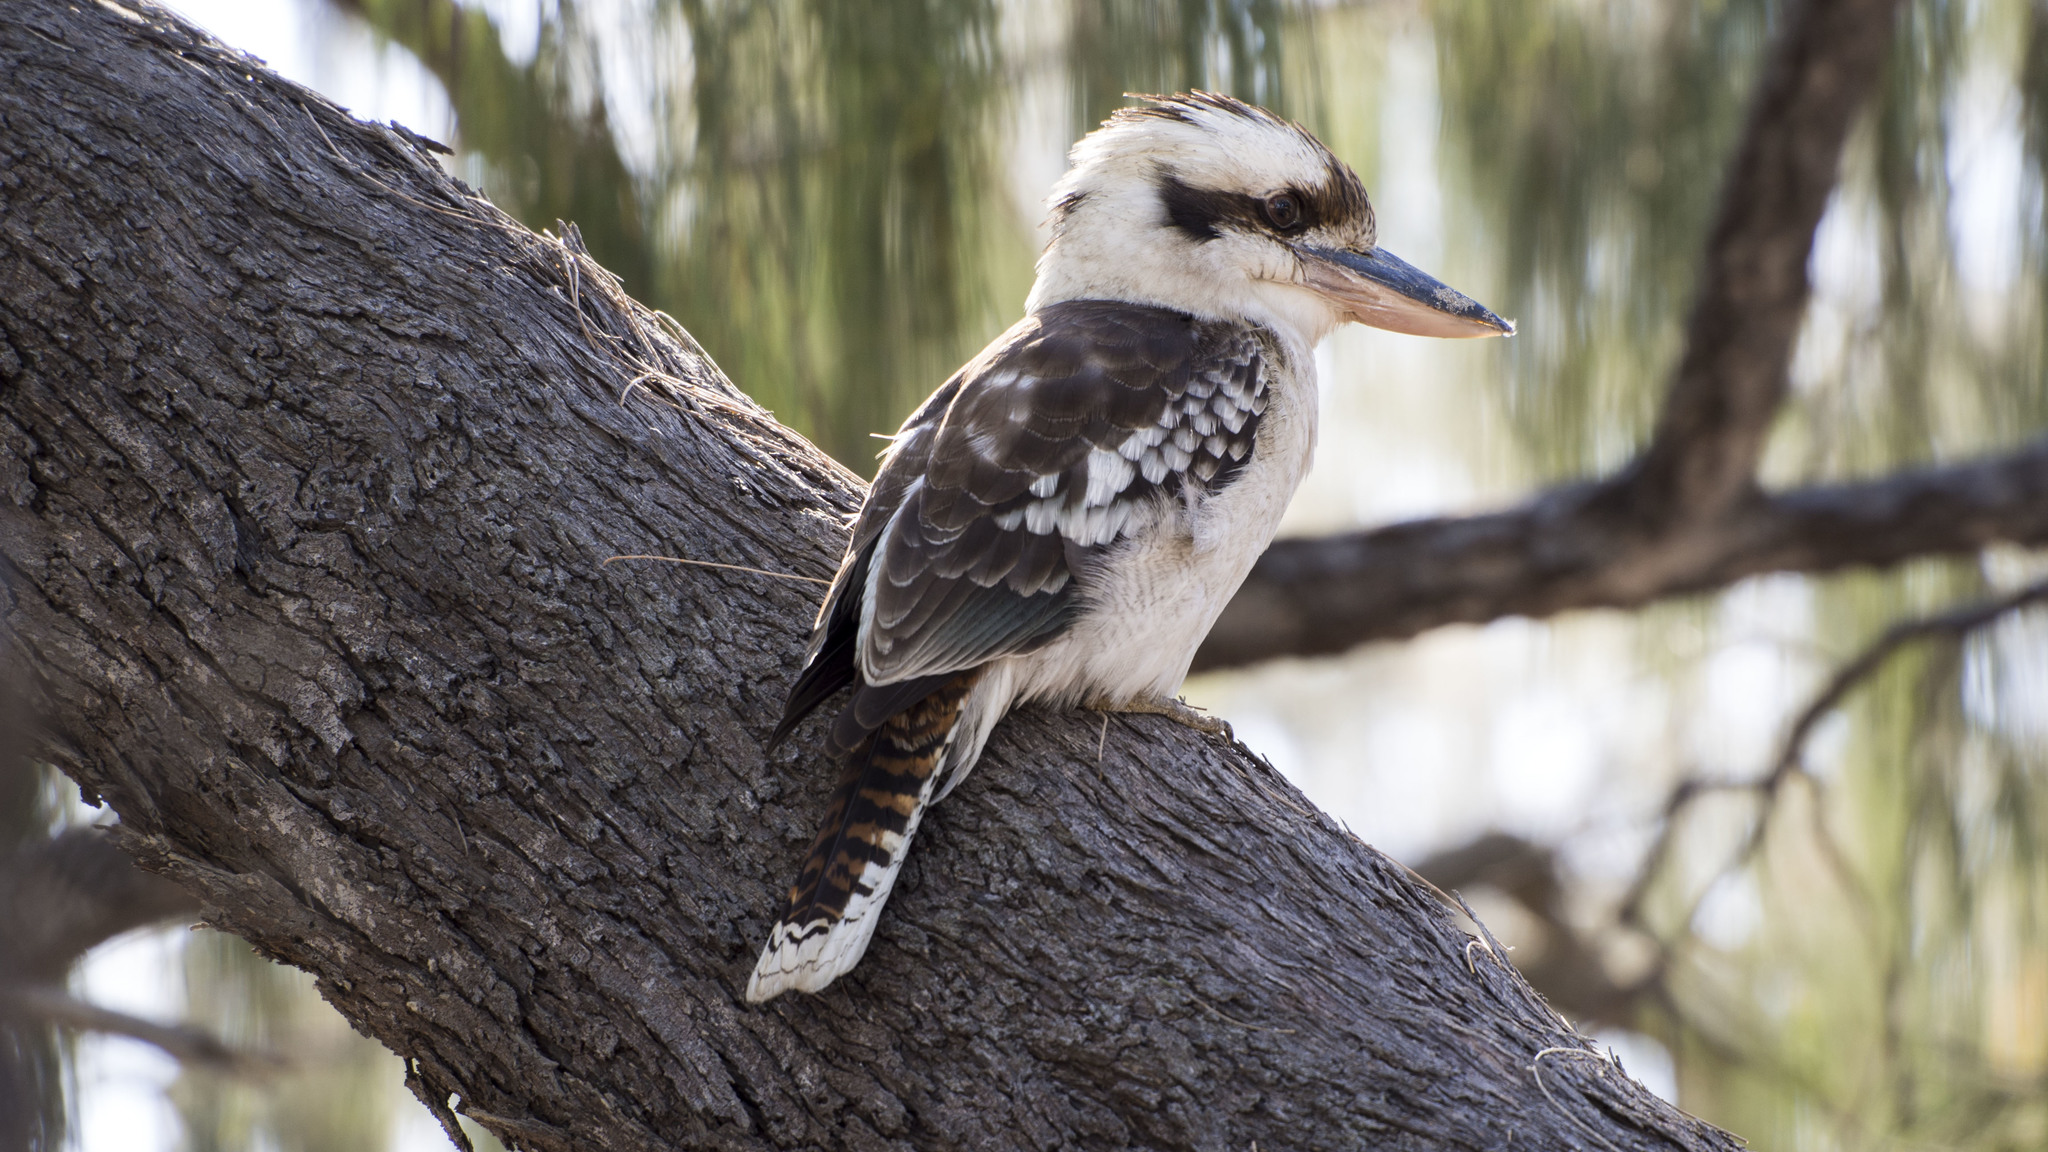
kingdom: Animalia
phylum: Chordata
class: Aves
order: Coraciiformes
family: Alcedinidae
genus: Dacelo
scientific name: Dacelo novaeguineae
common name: Laughing kookaburra
